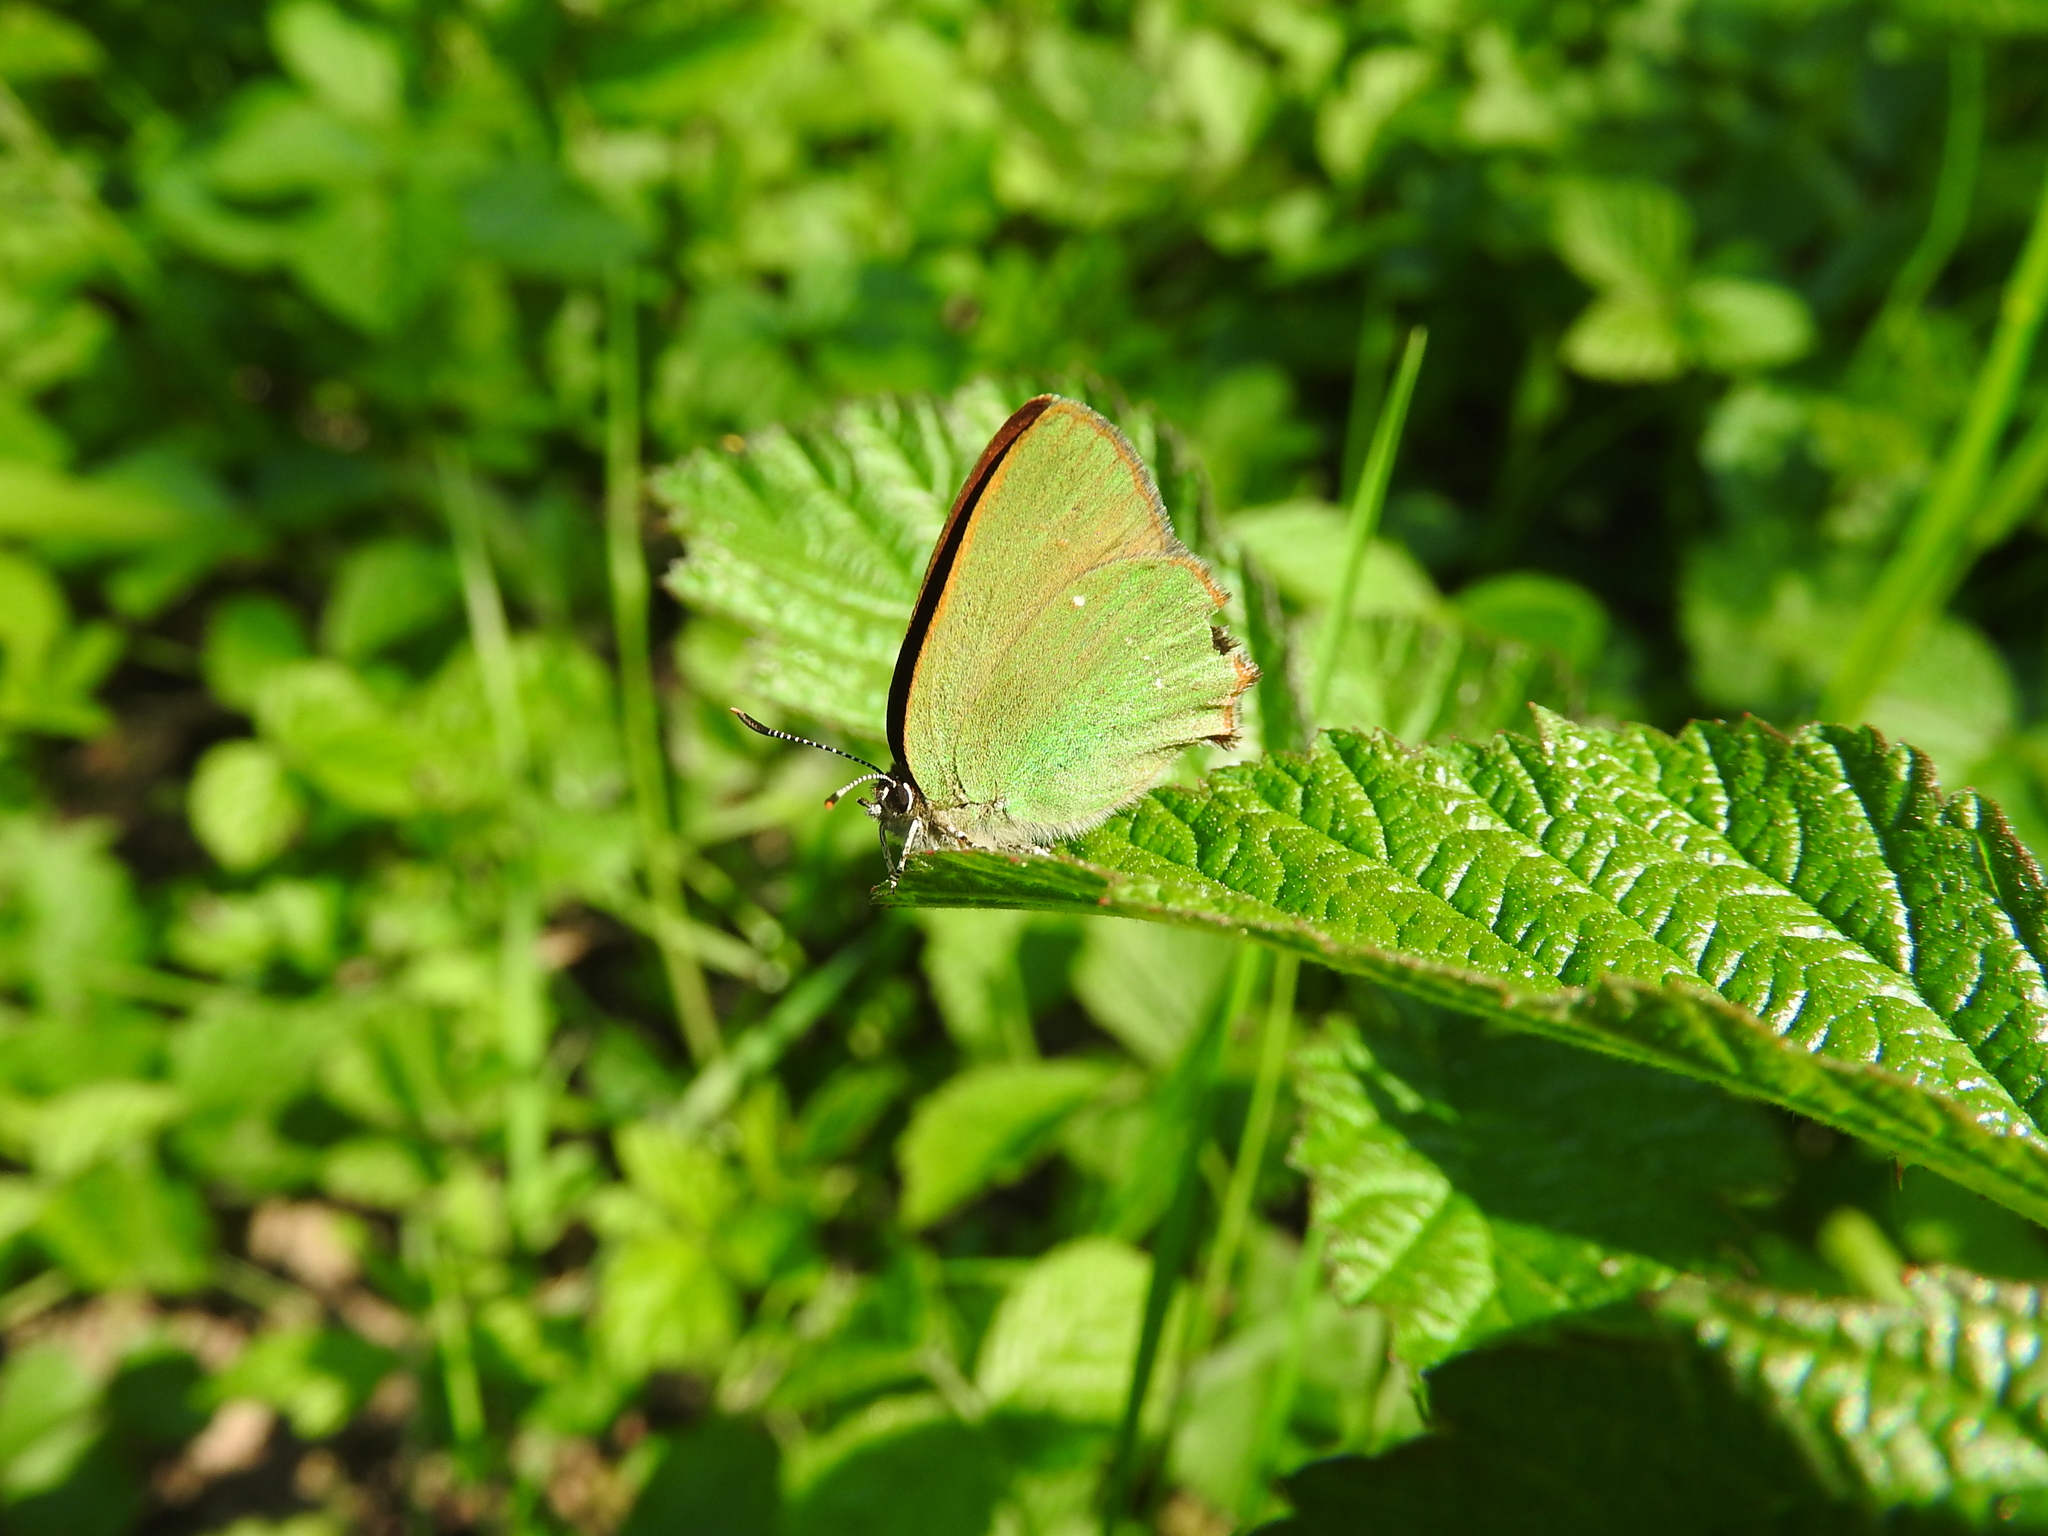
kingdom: Animalia
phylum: Arthropoda
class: Insecta
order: Lepidoptera
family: Lycaenidae
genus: Callophrys
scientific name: Callophrys rubi
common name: Green hairstreak
